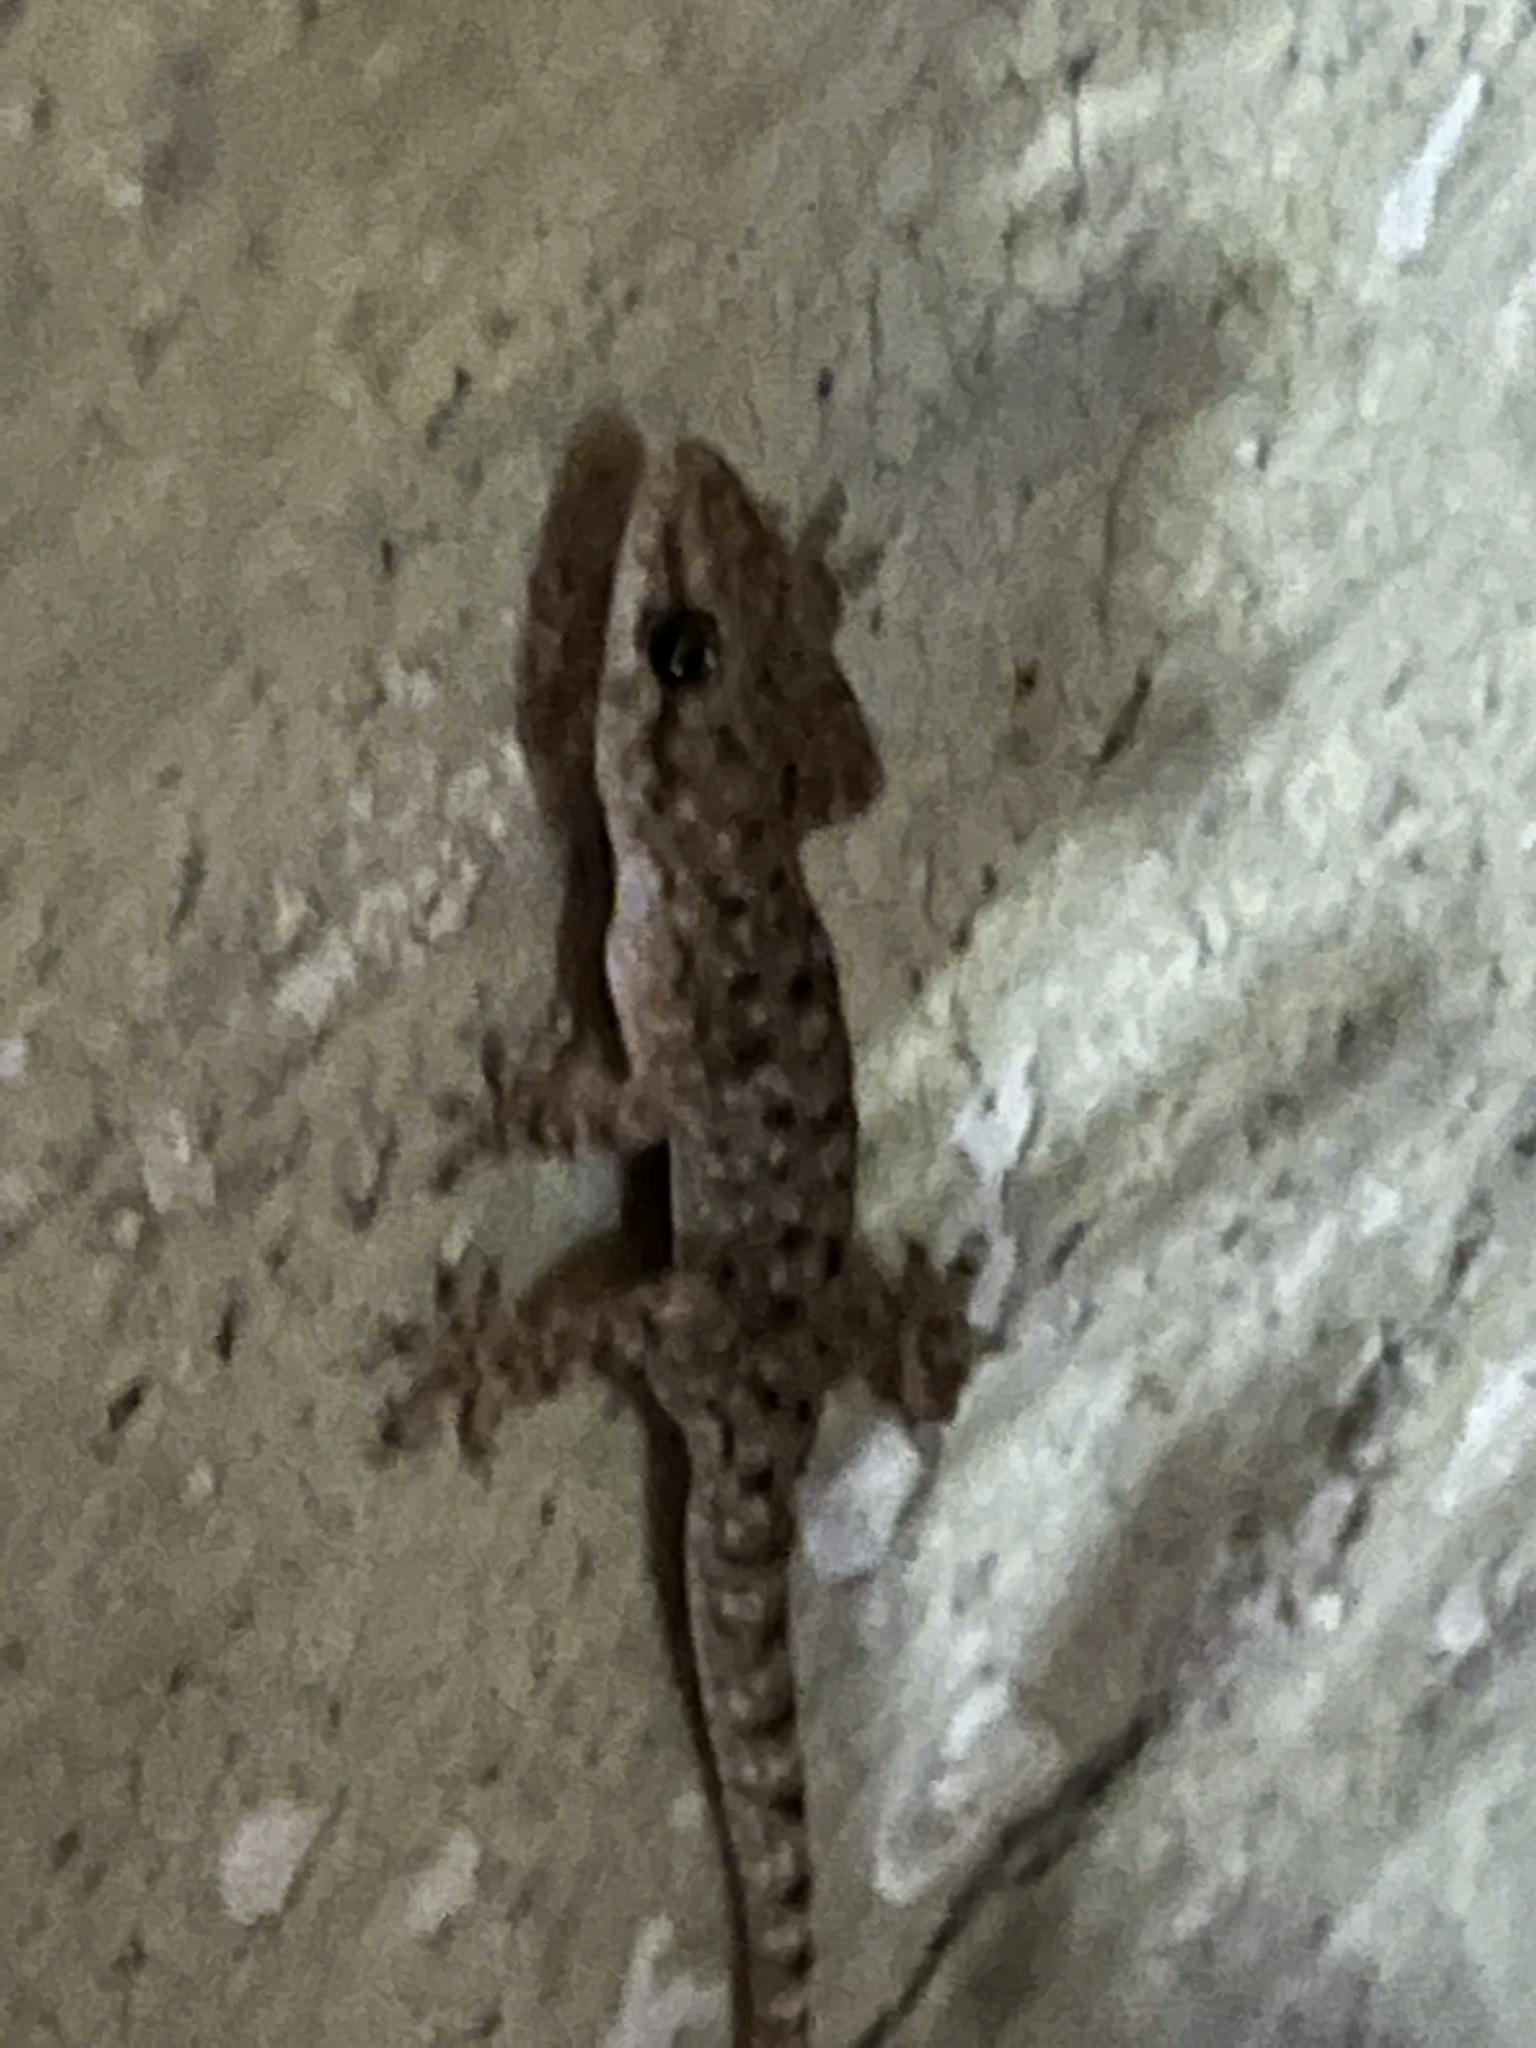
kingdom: Animalia
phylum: Chordata
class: Squamata
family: Gekkonidae
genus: Hemidactylus
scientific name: Hemidactylus parvimaculatus
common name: Spotted house gecko
